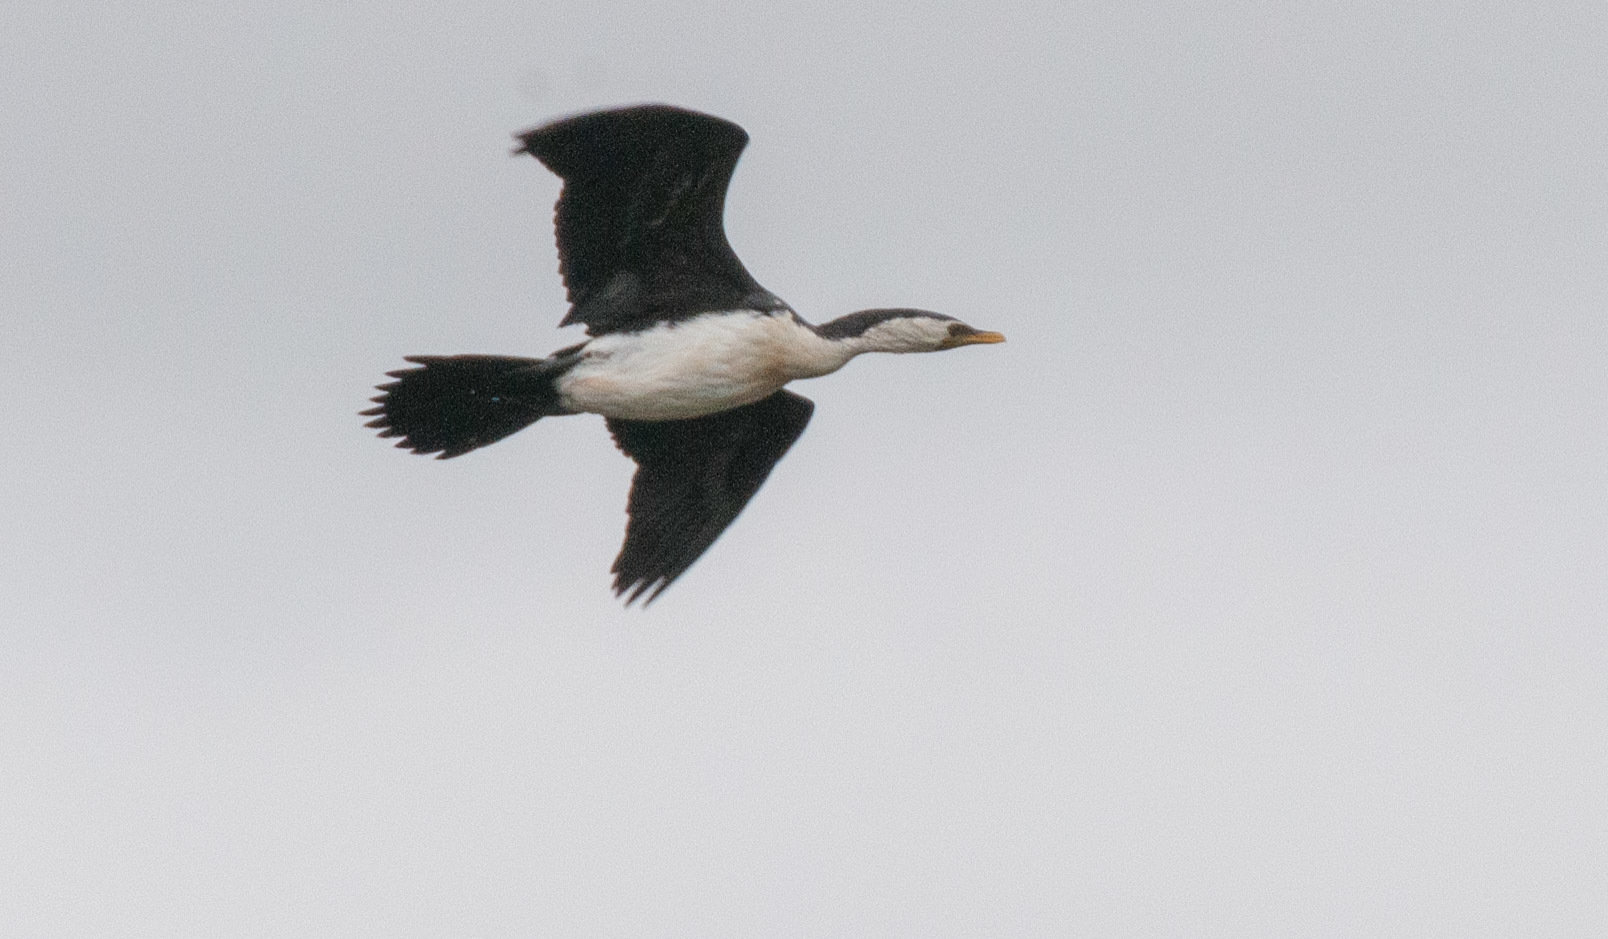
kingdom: Animalia
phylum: Chordata
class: Aves
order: Suliformes
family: Phalacrocoracidae
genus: Microcarbo
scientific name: Microcarbo melanoleucos
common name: Little pied cormorant
